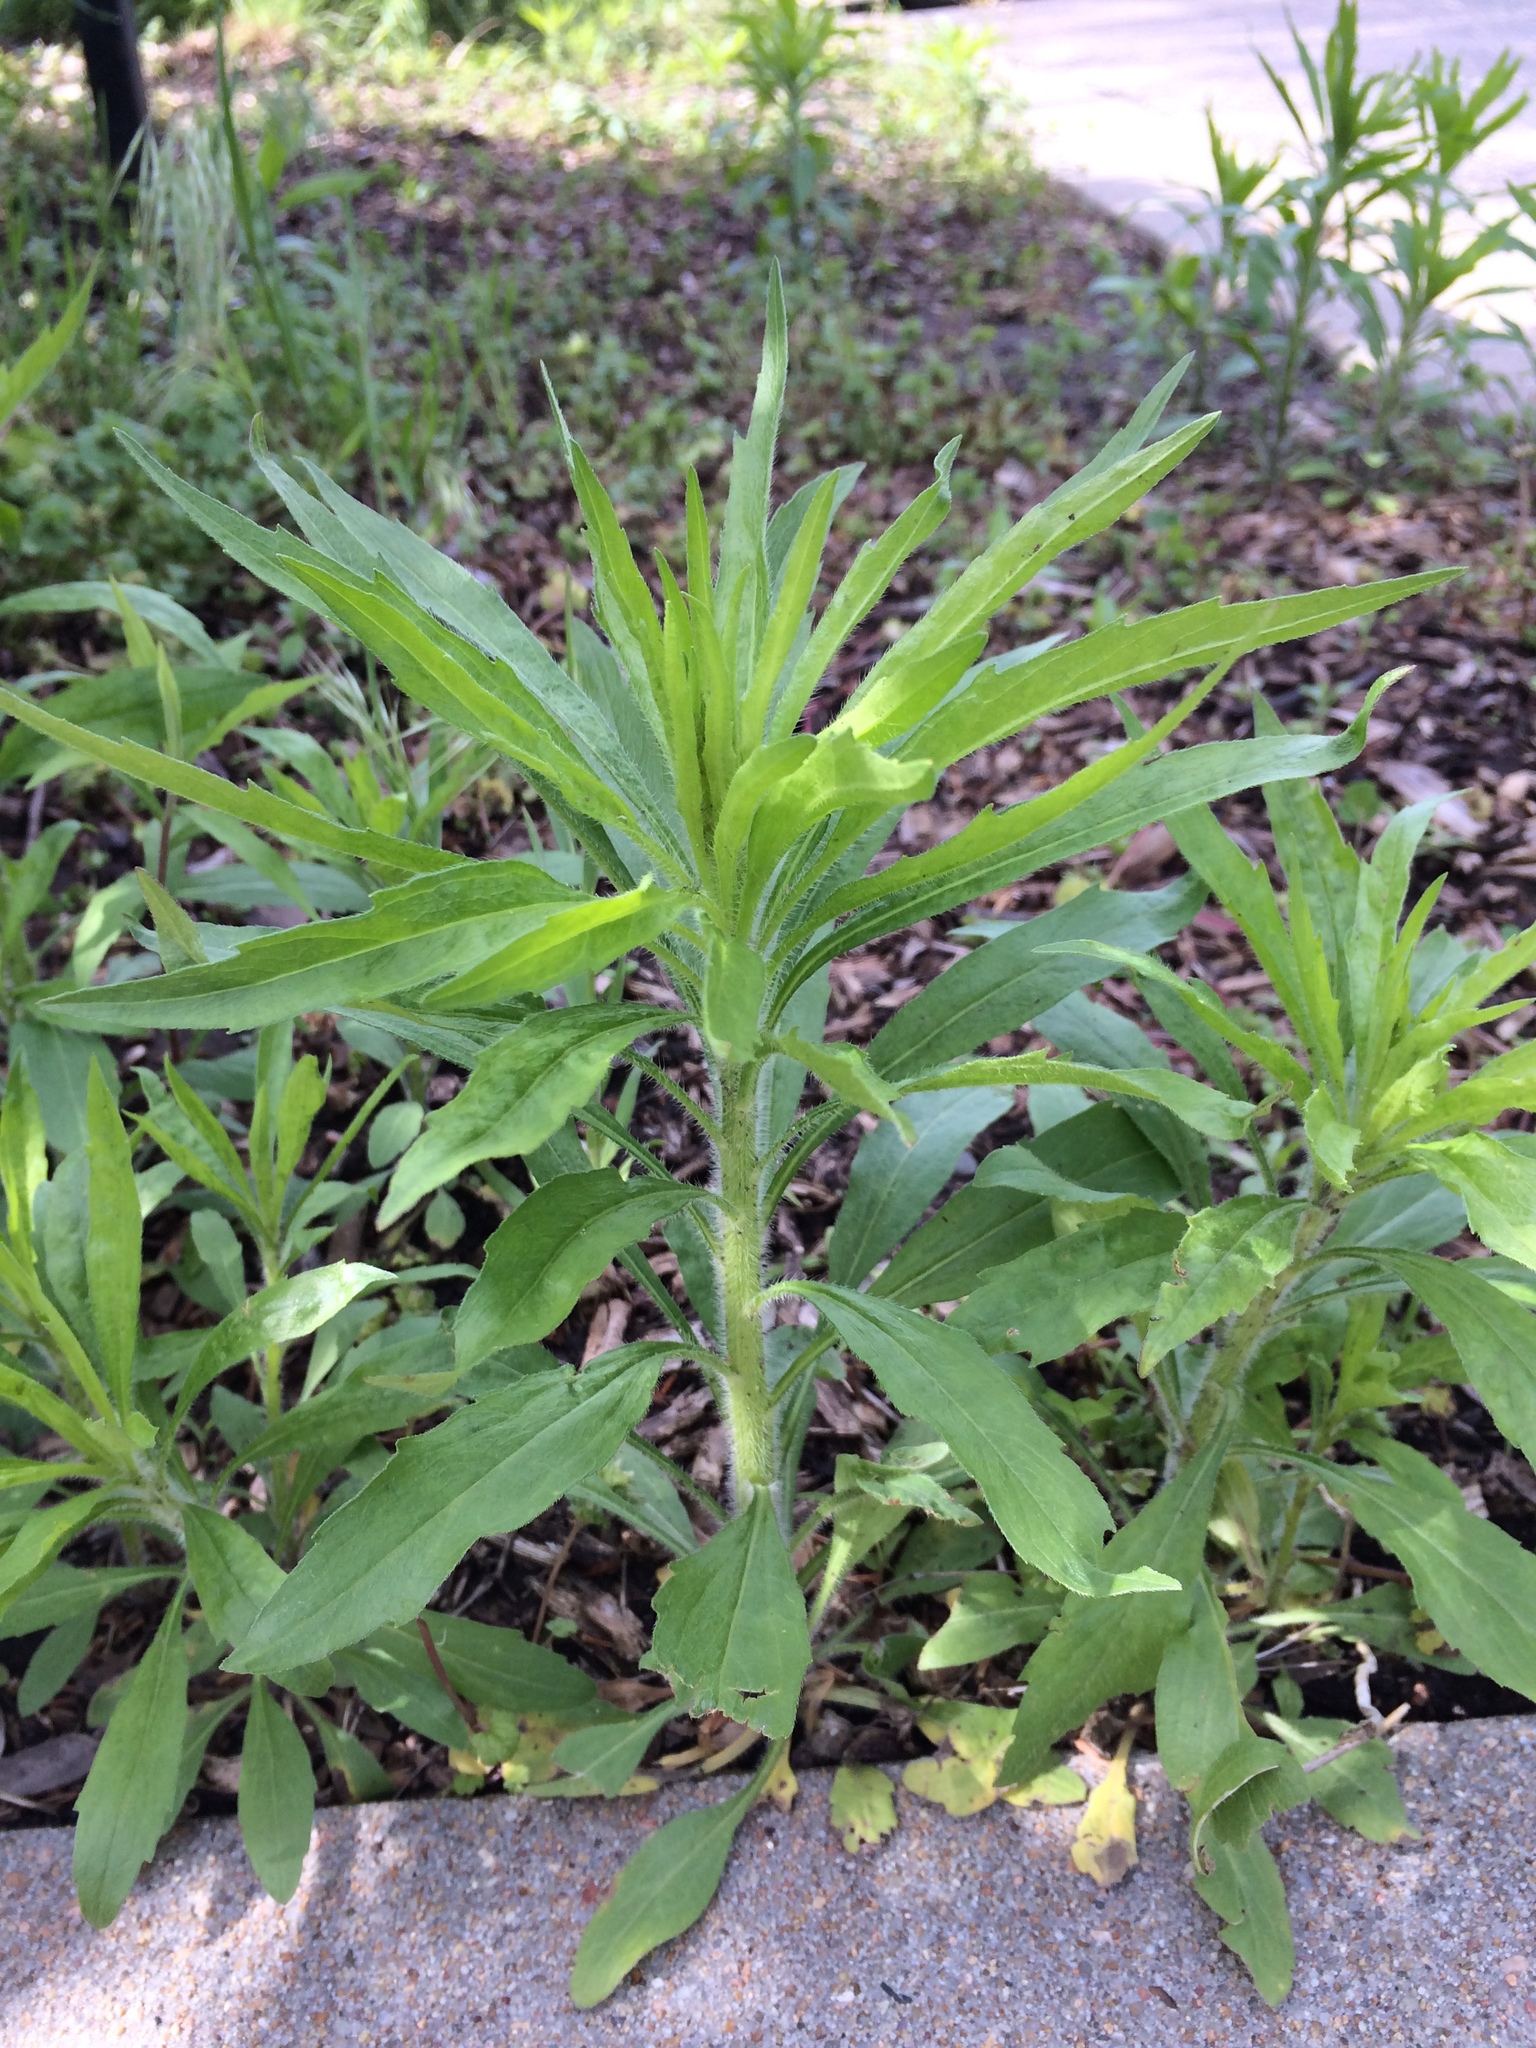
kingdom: Plantae
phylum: Tracheophyta
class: Magnoliopsida
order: Asterales
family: Asteraceae
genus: Erigeron
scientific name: Erigeron canadensis
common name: Canadian fleabane
